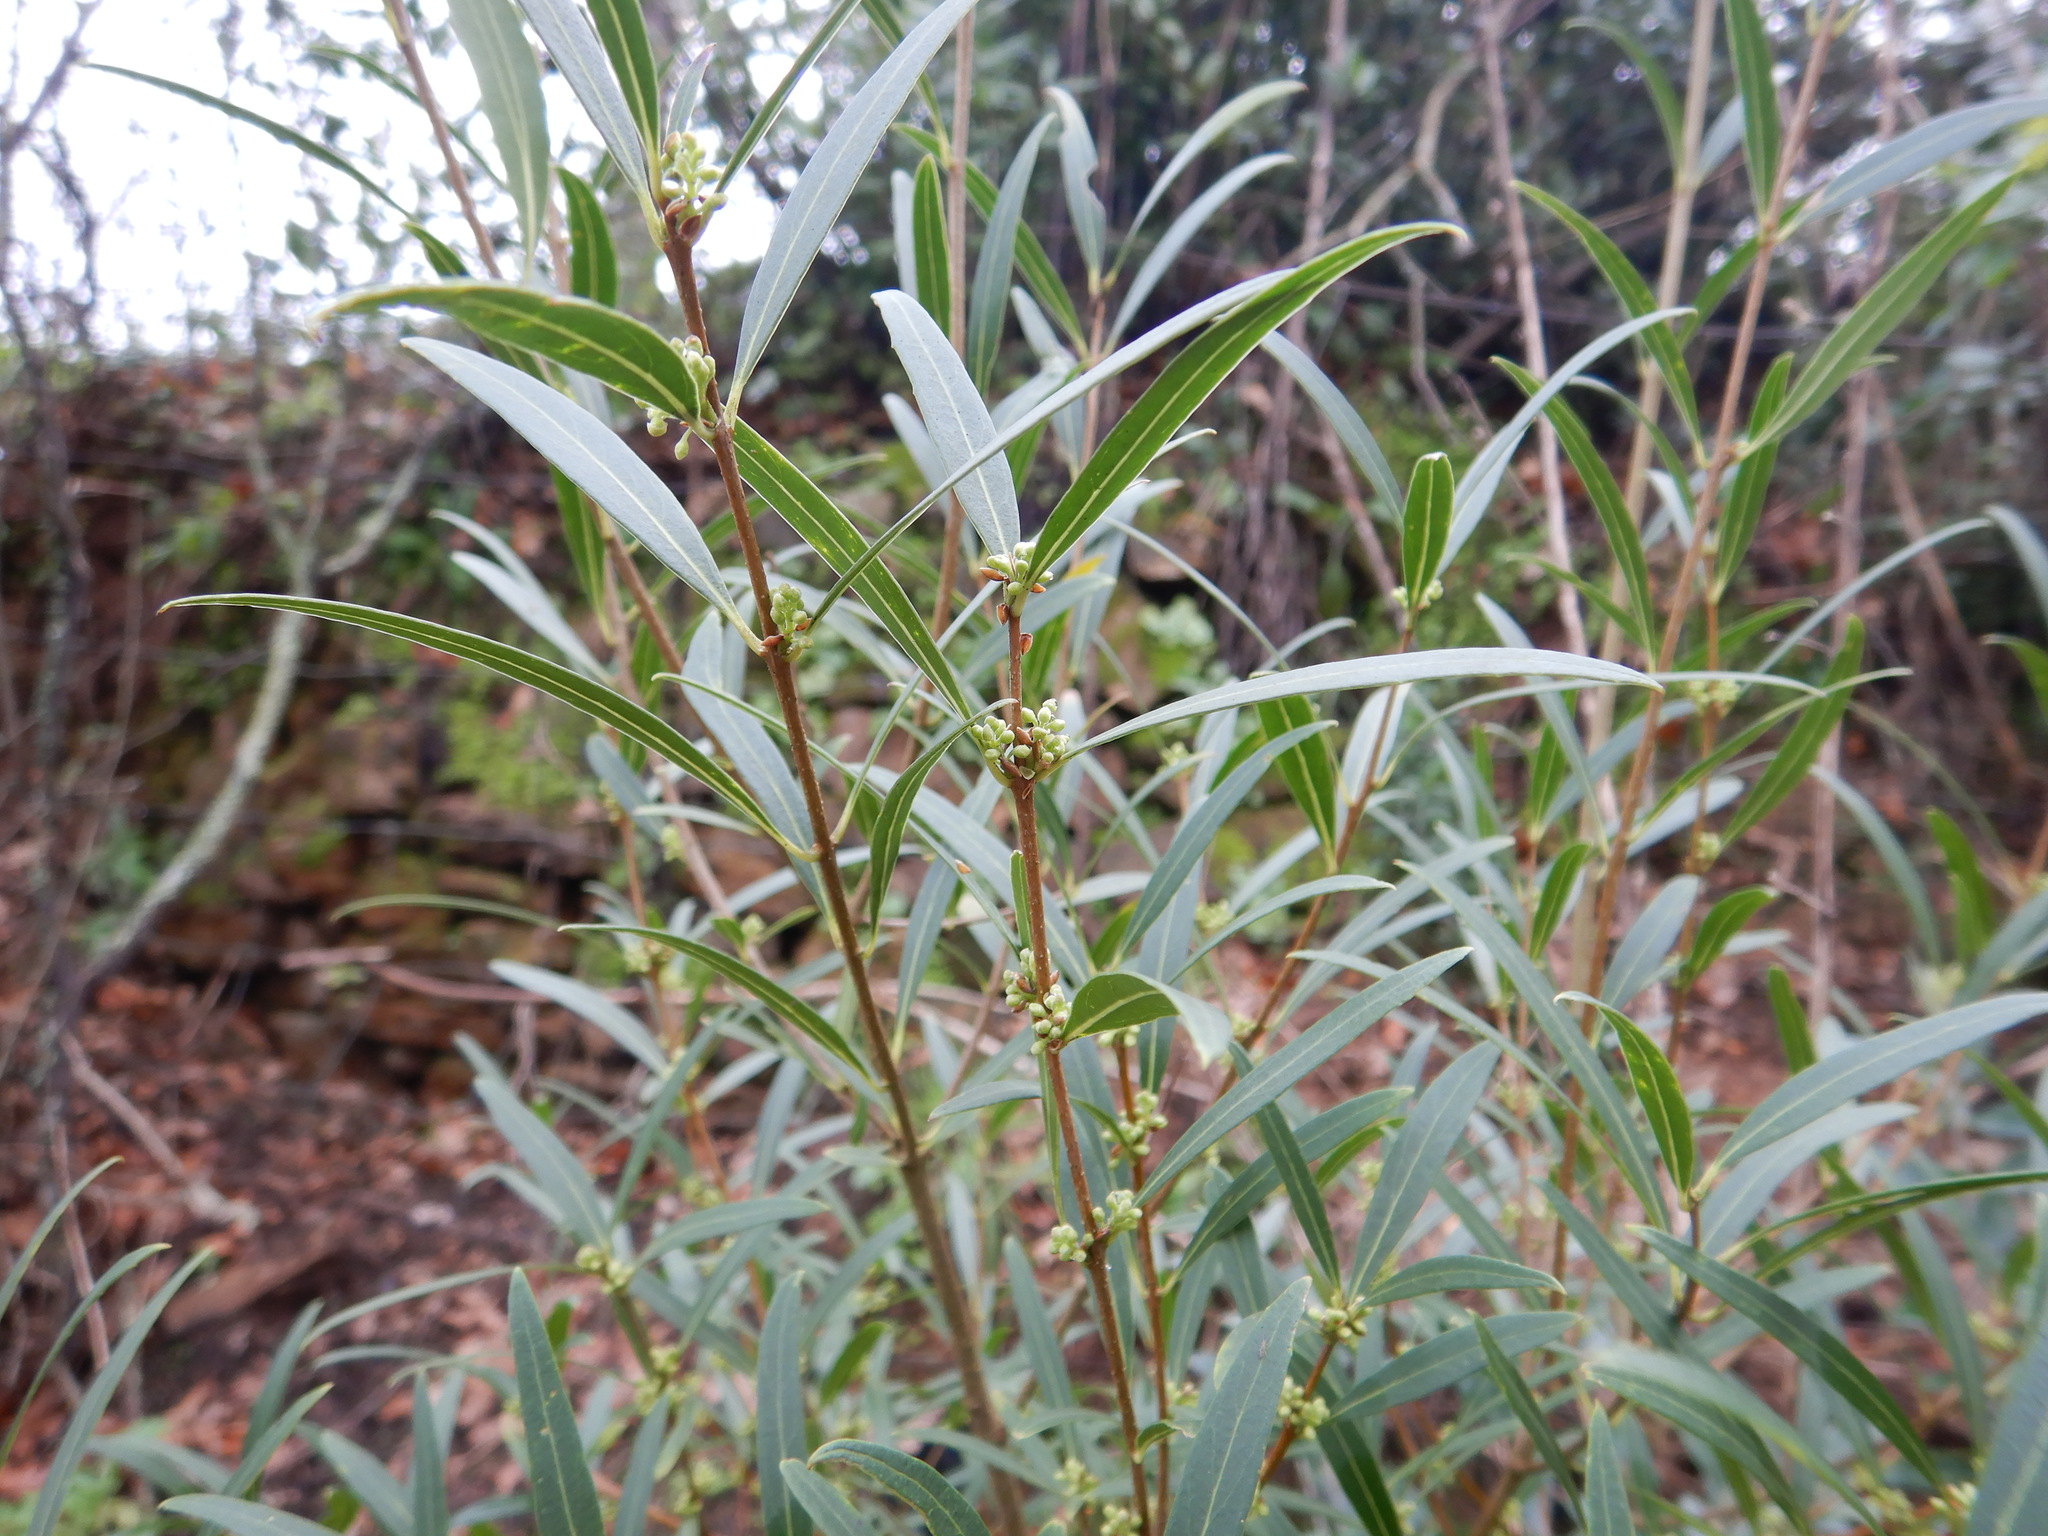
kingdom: Plantae
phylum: Tracheophyta
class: Magnoliopsida
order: Lamiales
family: Oleaceae
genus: Phillyrea
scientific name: Phillyrea angustifolia
